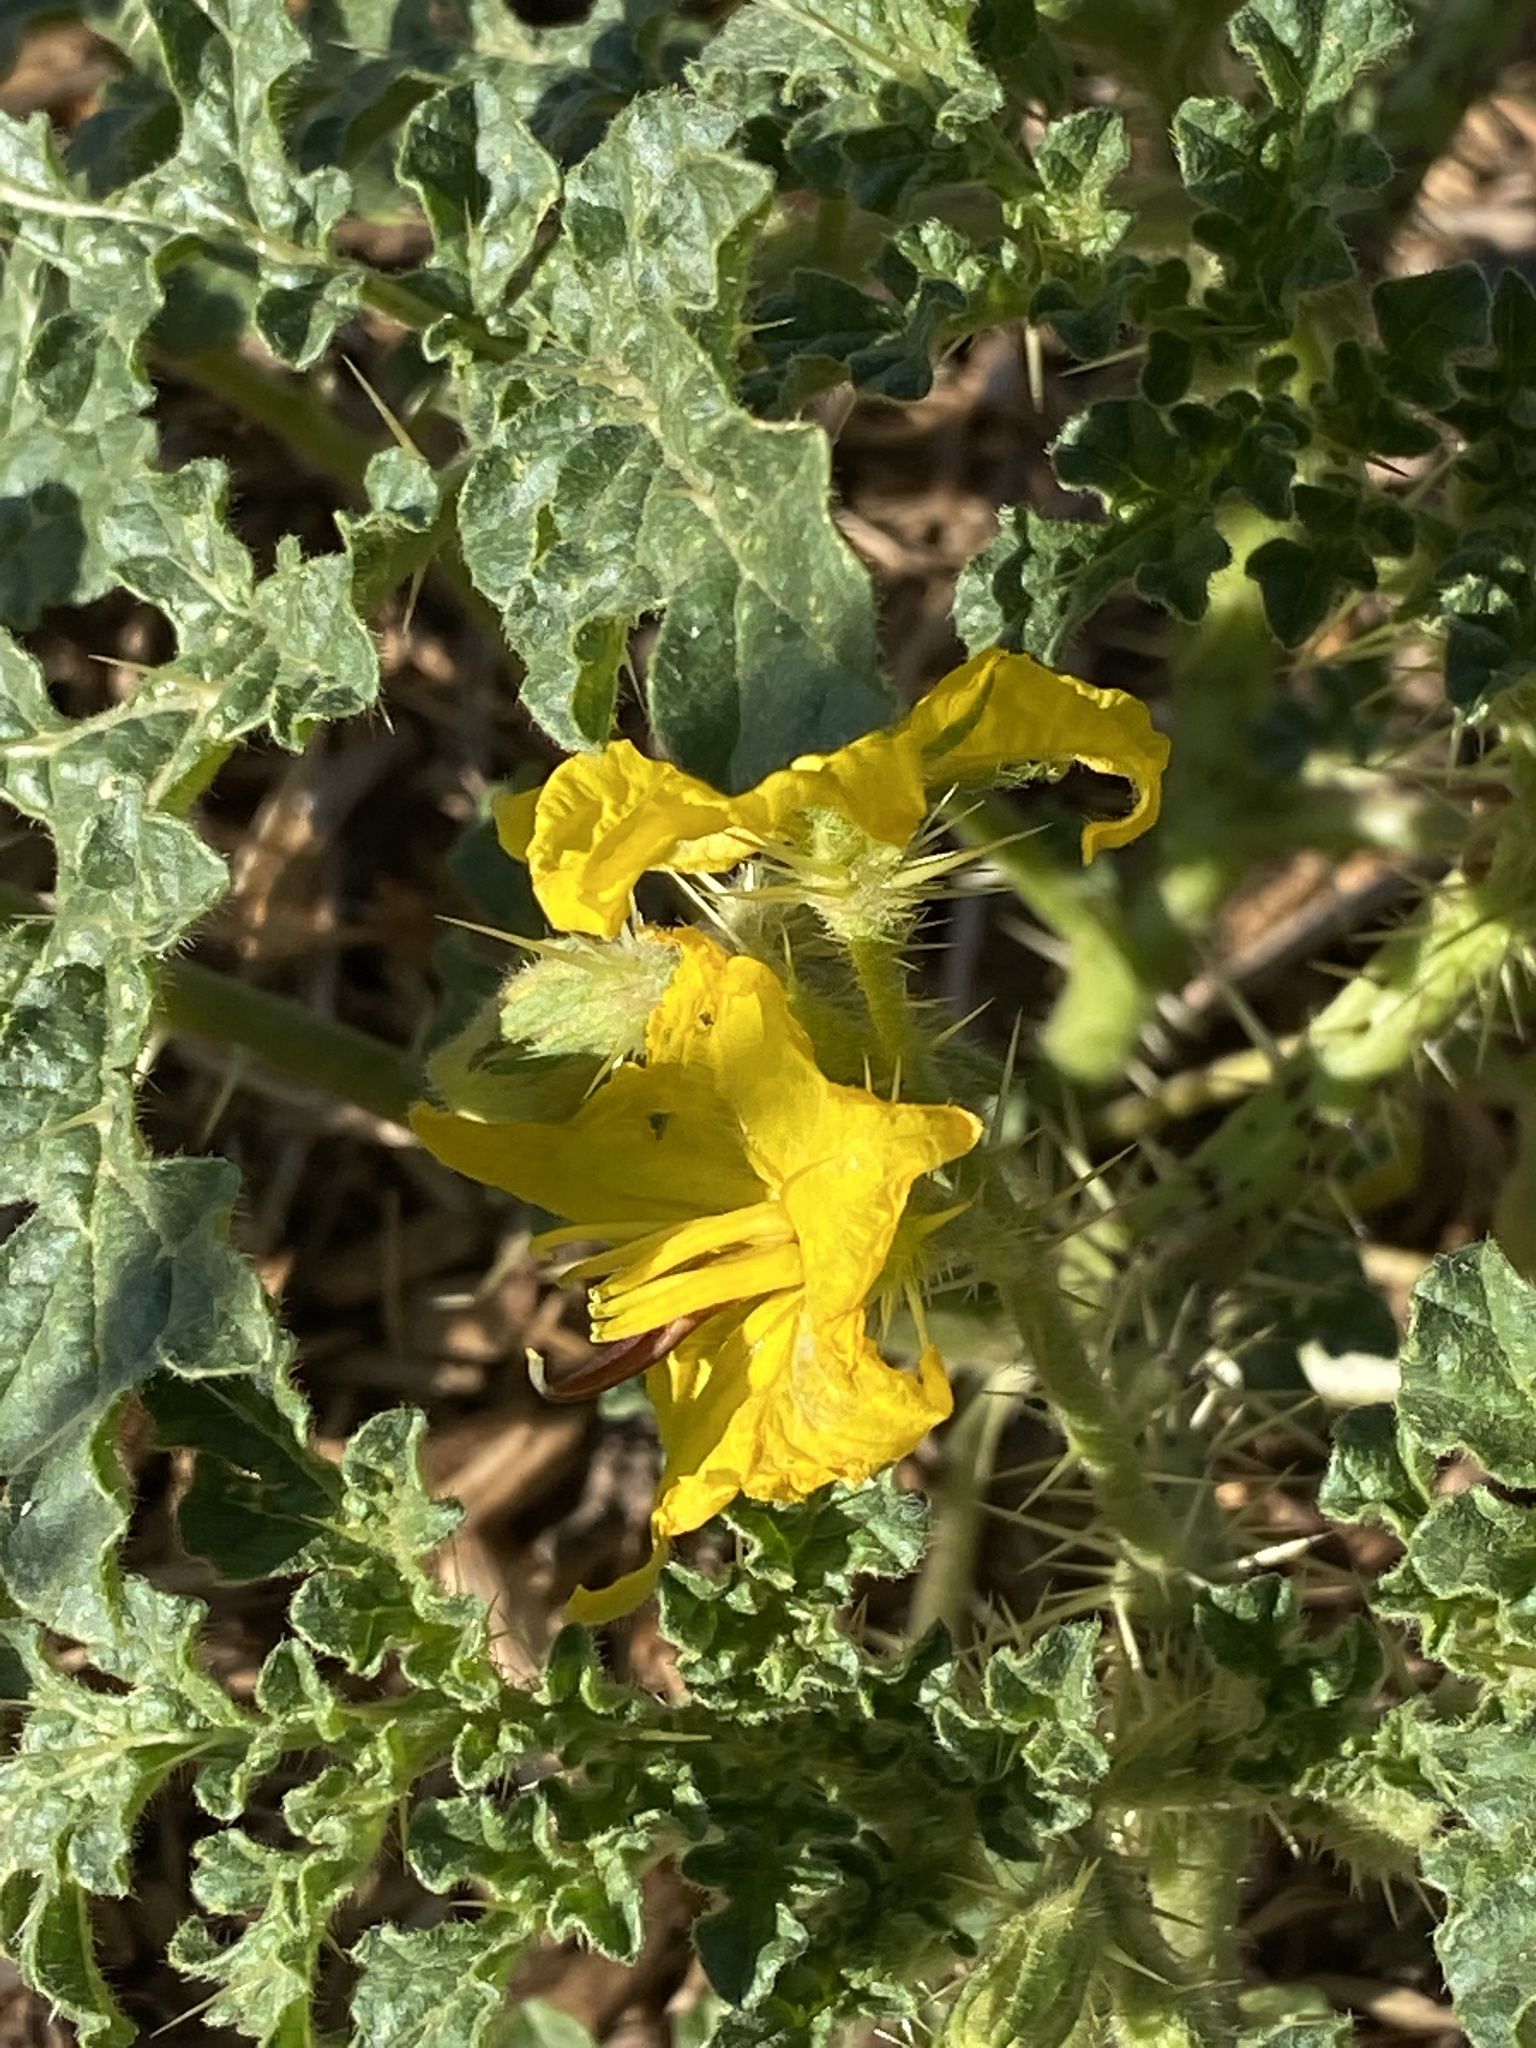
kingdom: Plantae
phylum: Tracheophyta
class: Magnoliopsida
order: Solanales
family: Solanaceae
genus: Solanum
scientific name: Solanum angustifolium
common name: Buffalobur nightshade
